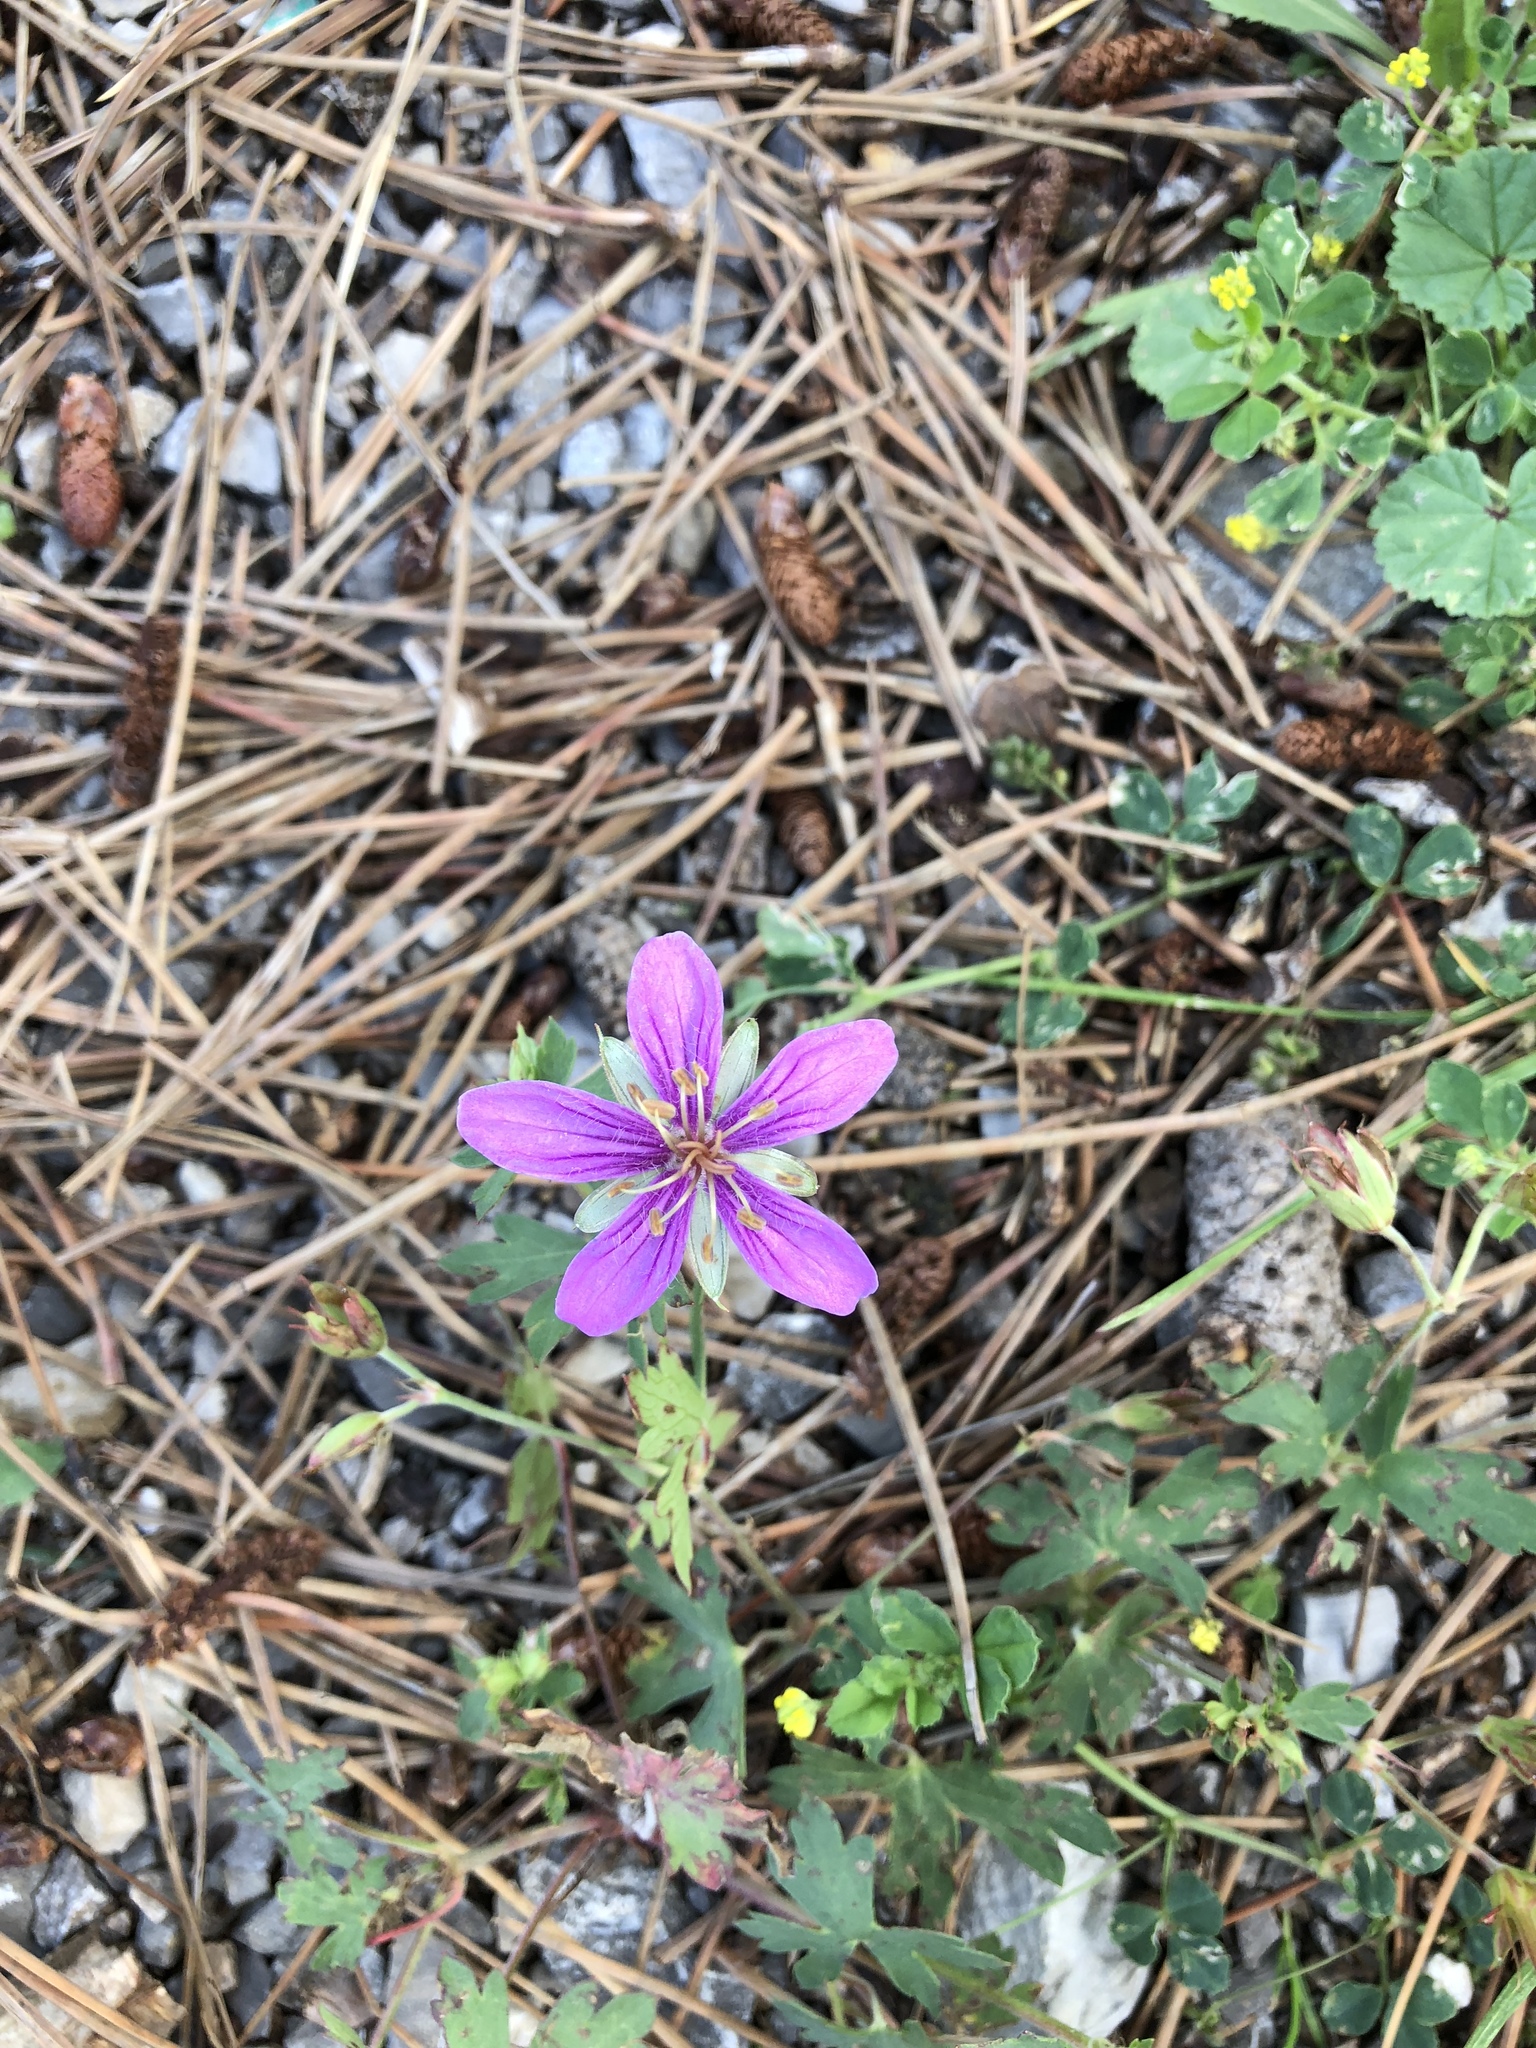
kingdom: Plantae
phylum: Tracheophyta
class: Magnoliopsida
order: Geraniales
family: Geraniaceae
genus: Geranium
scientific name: Geranium caespitosum
